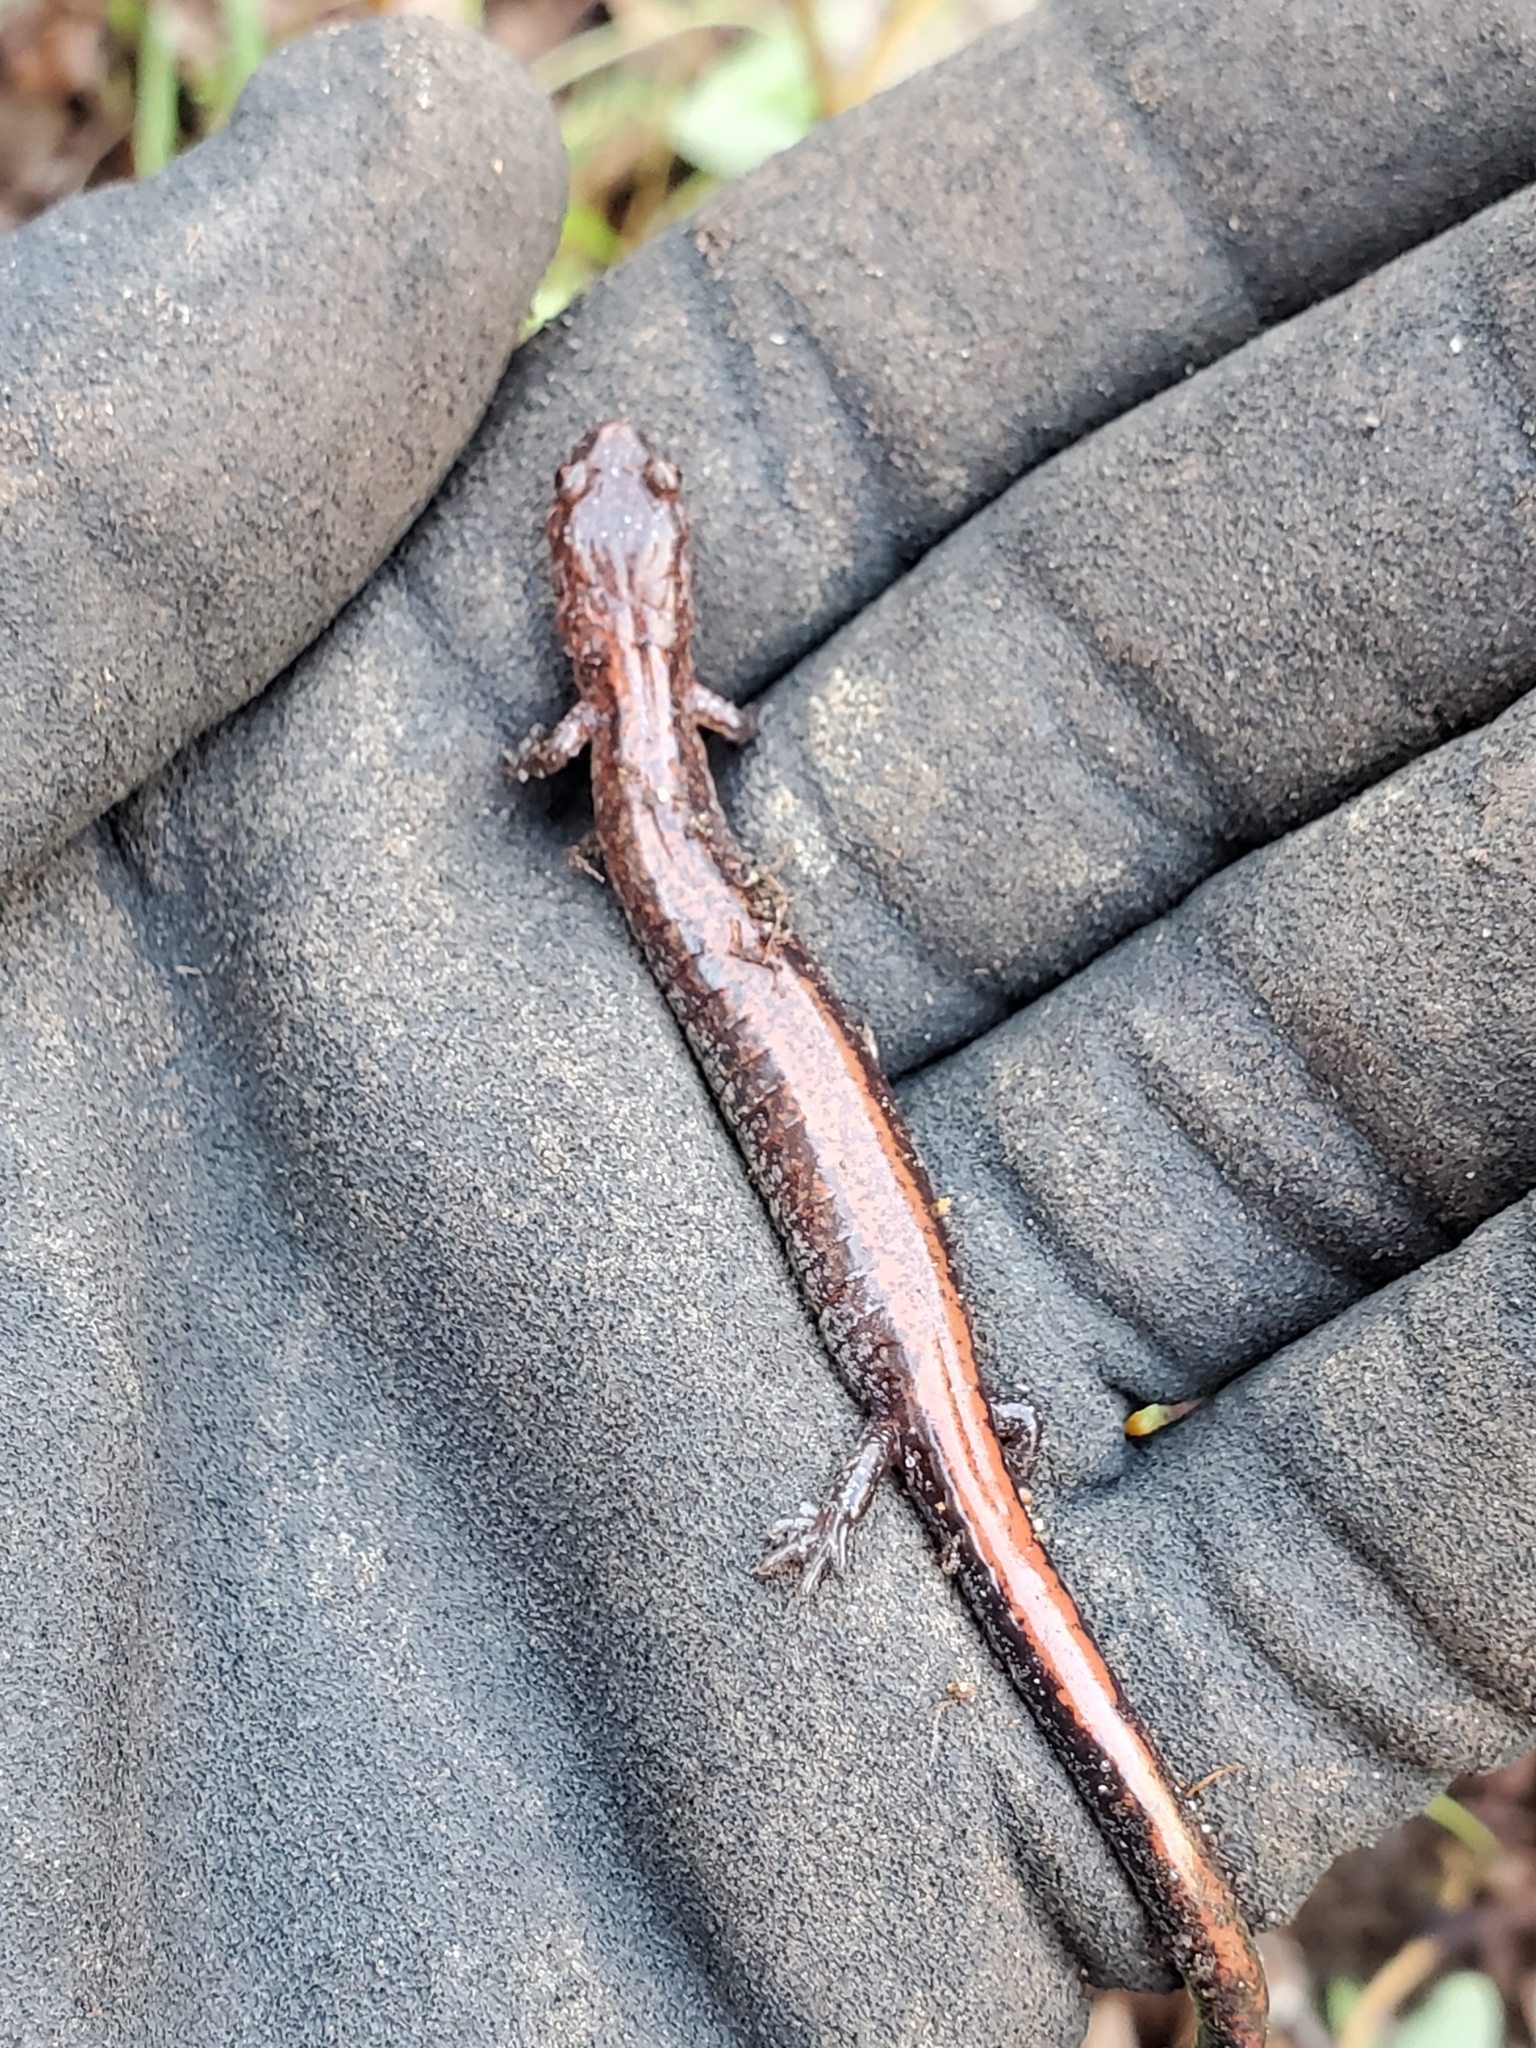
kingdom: Animalia
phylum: Chordata
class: Amphibia
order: Caudata
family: Plethodontidae
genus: Plethodon
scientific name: Plethodon cinereus
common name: Redback salamander
